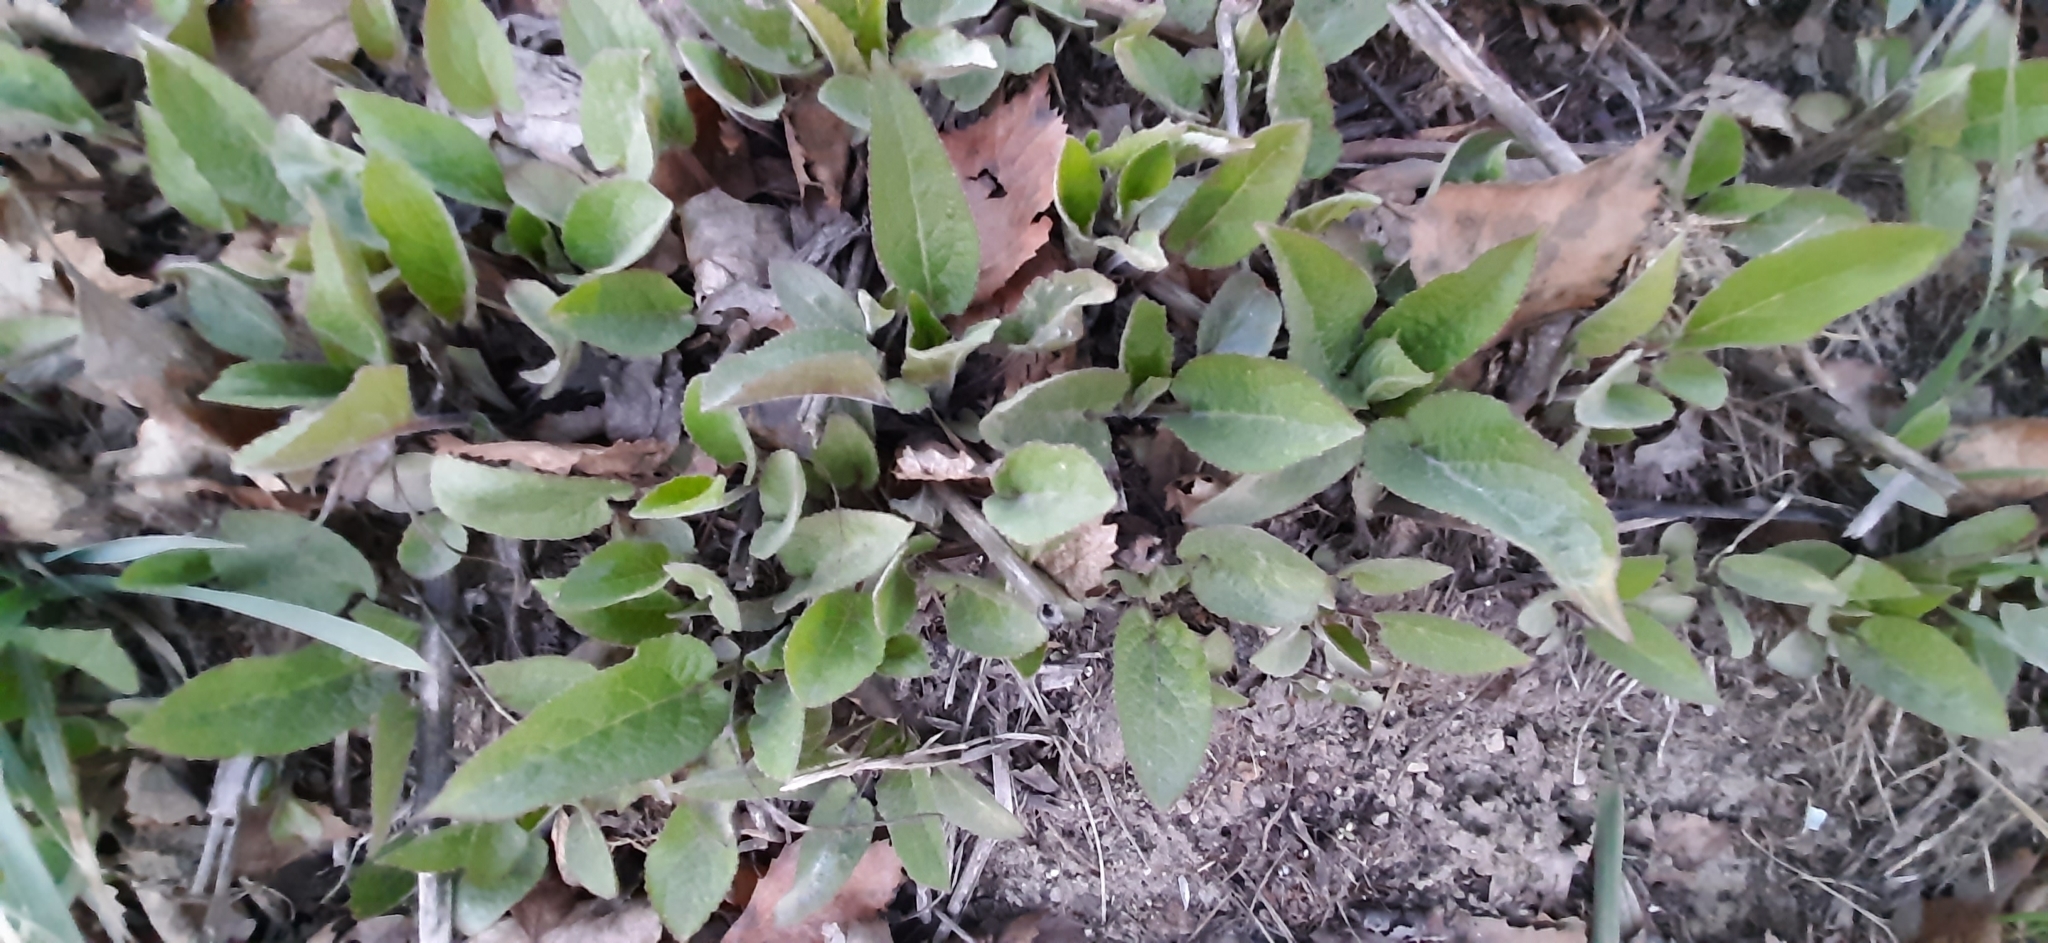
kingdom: Plantae
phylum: Tracheophyta
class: Magnoliopsida
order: Asterales
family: Campanulaceae
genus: Campanula
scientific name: Campanula rapunculoides
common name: Creeping bellflower
